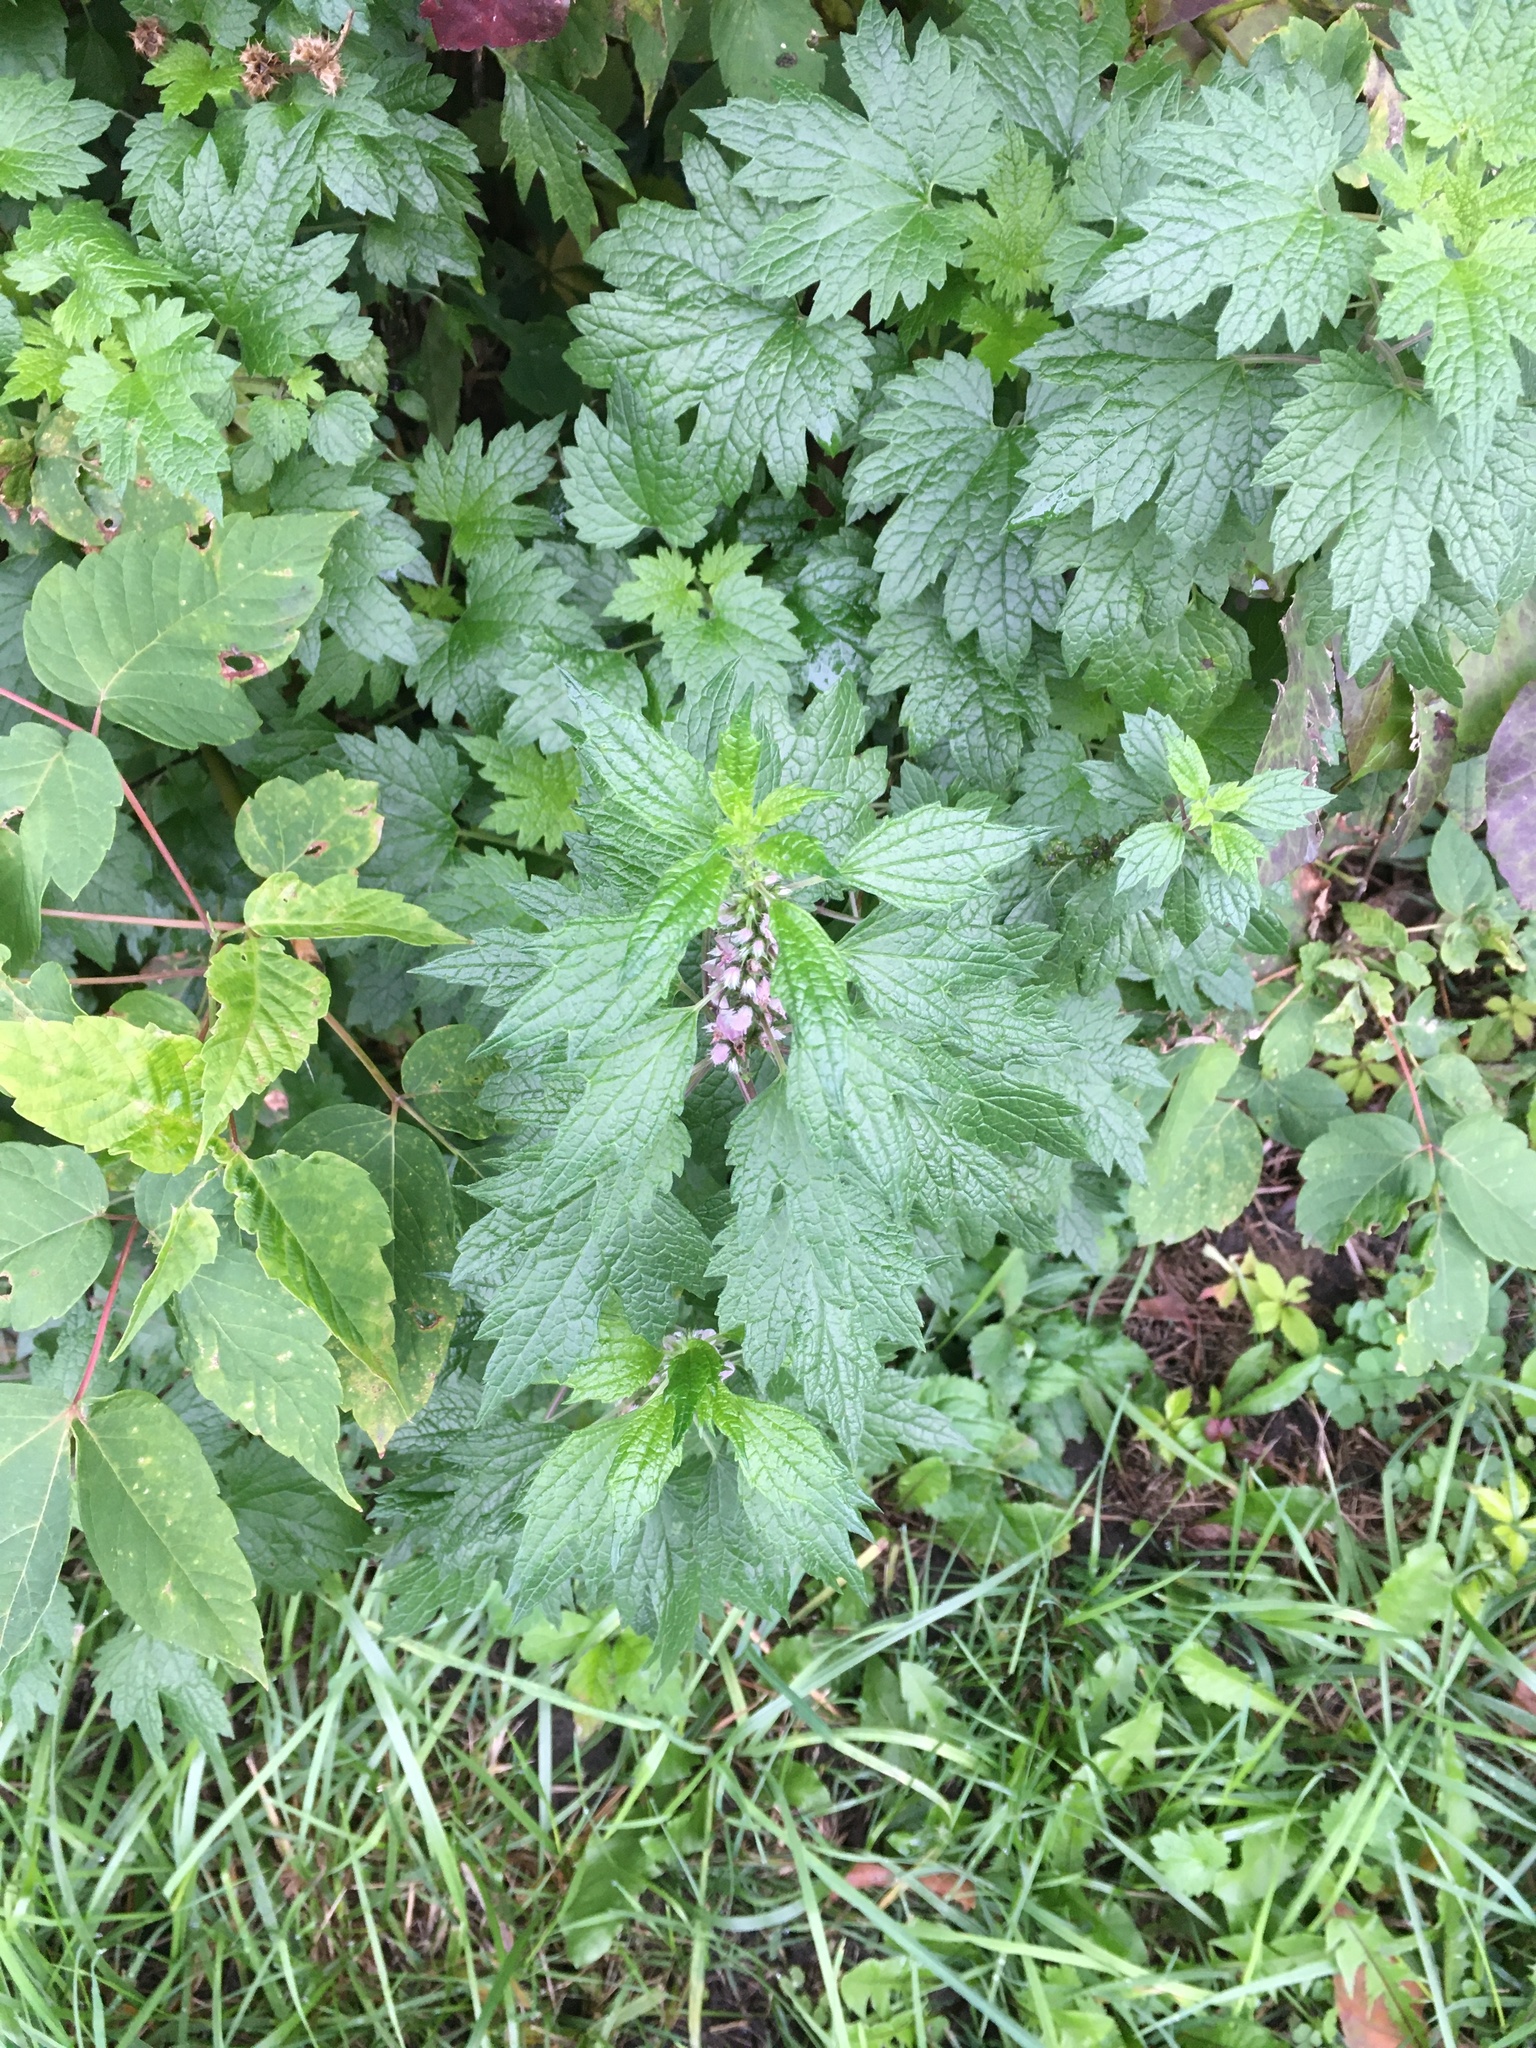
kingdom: Plantae
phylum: Tracheophyta
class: Magnoliopsida
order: Lamiales
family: Lamiaceae
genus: Leonurus
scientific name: Leonurus cardiaca
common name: Motherwort
